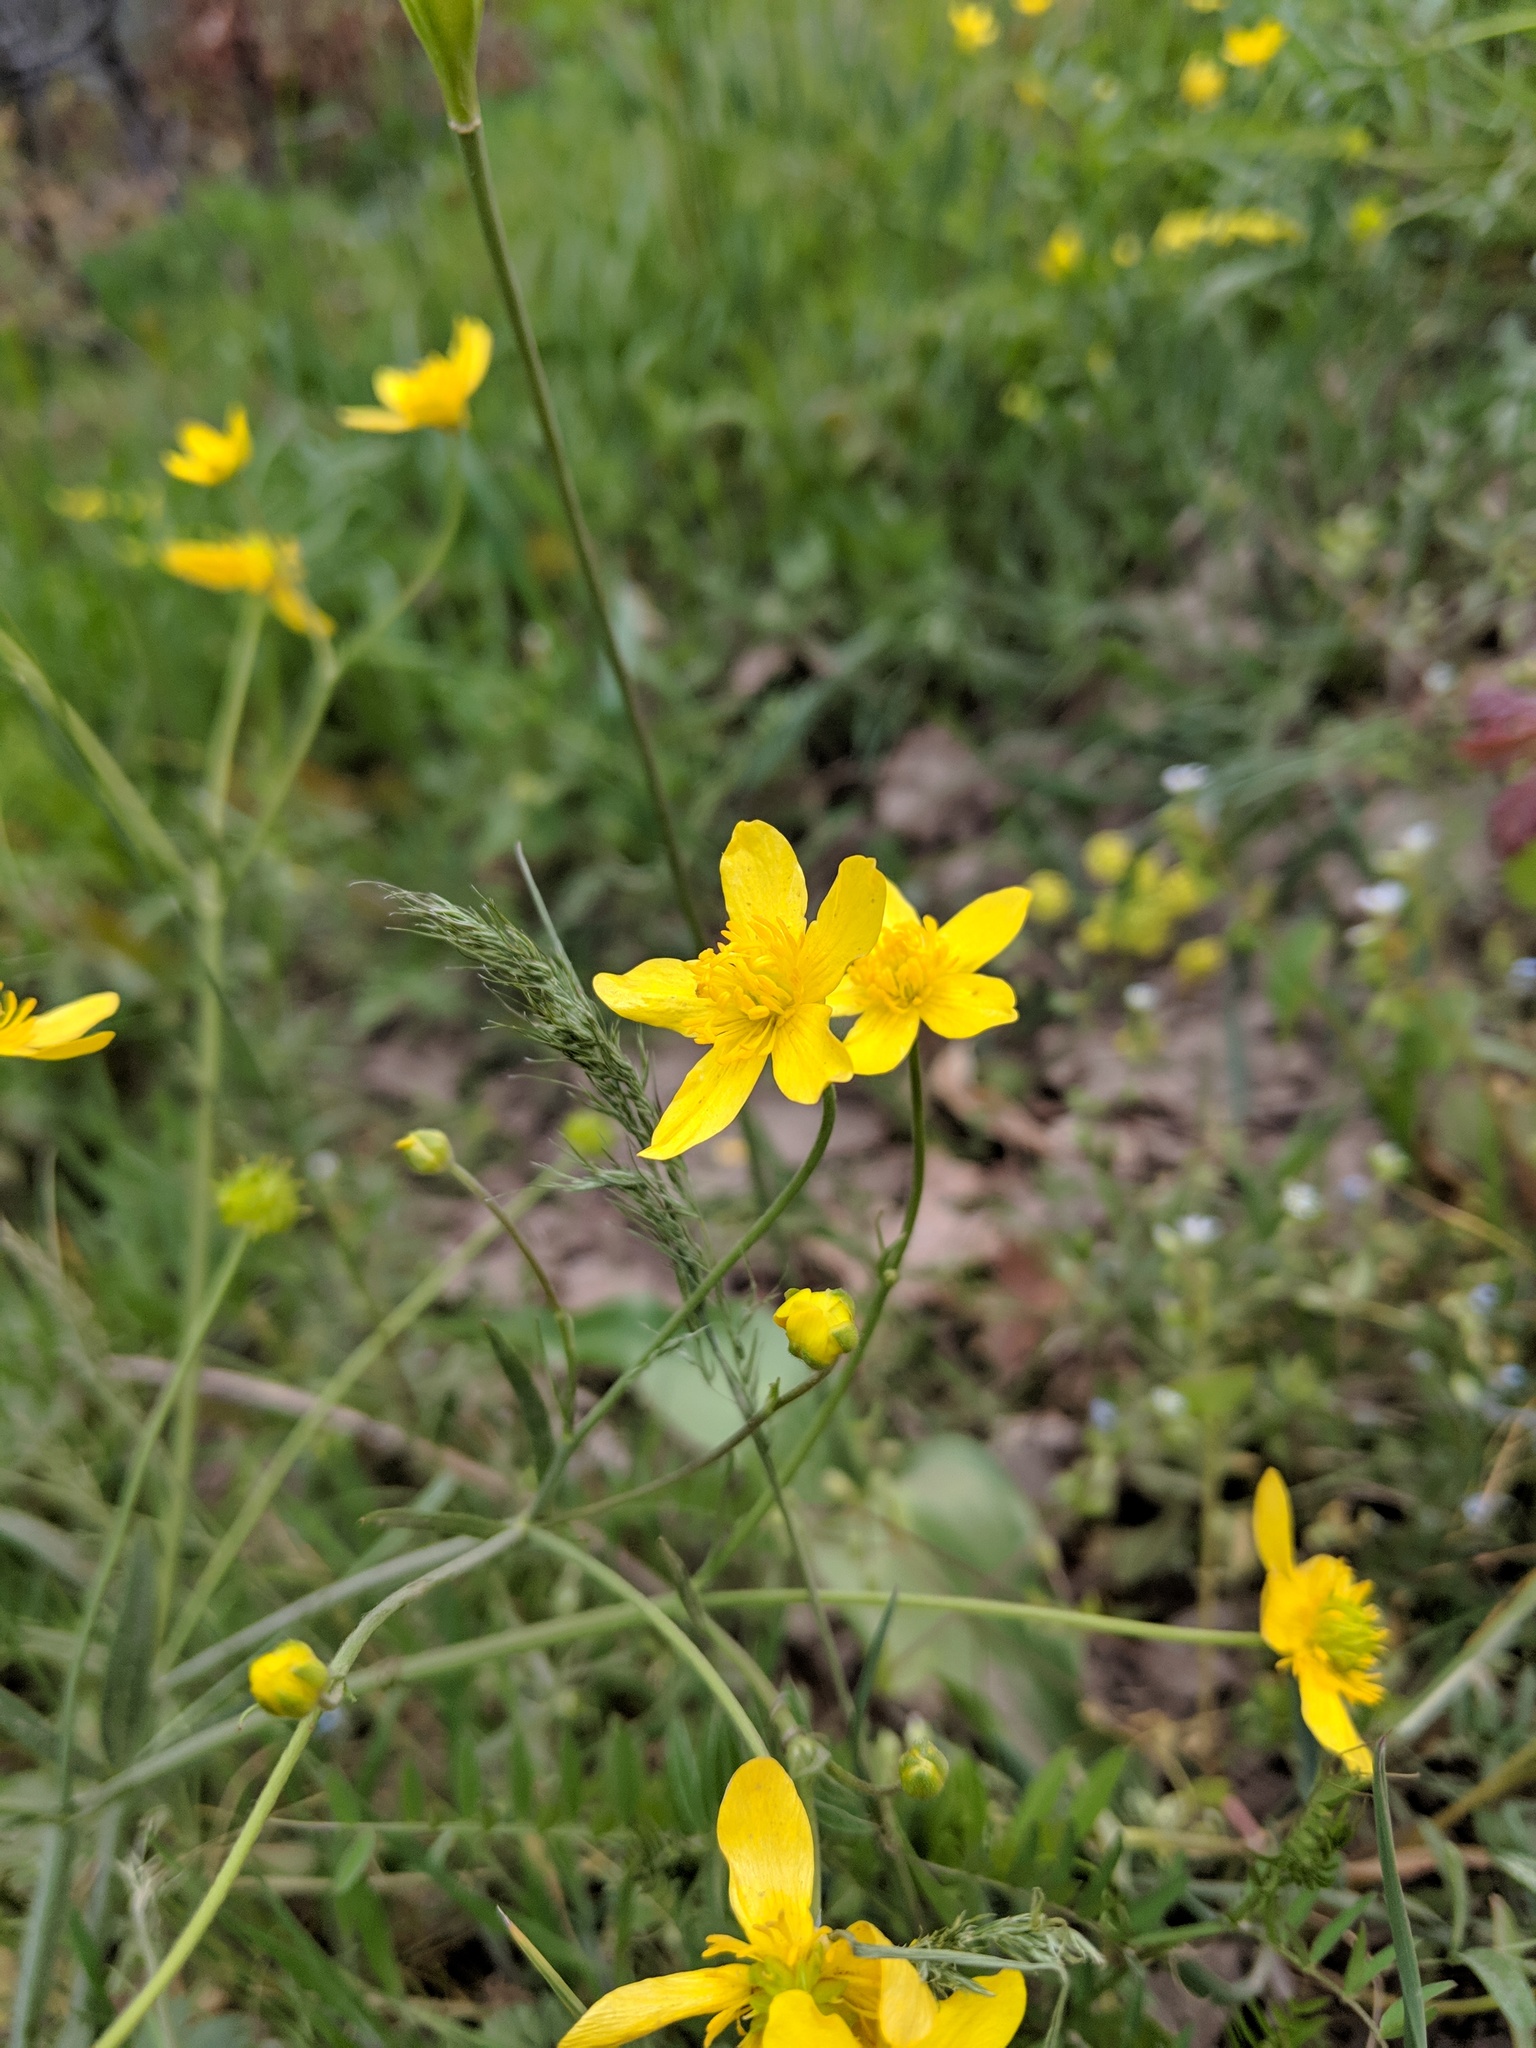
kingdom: Plantae
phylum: Tracheophyta
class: Magnoliopsida
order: Ranunculales
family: Ranunculaceae
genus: Ranunculus
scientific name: Ranunculus occidentalis
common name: Western buttercup
